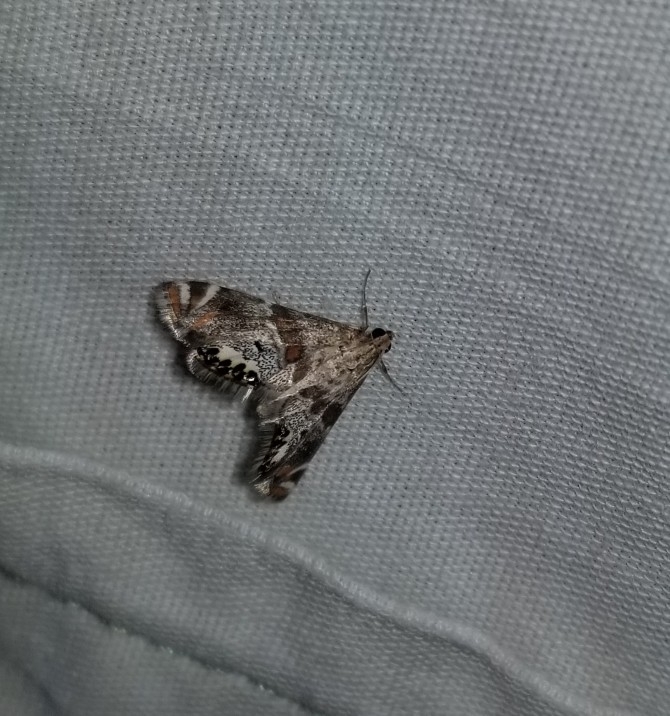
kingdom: Animalia
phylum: Arthropoda
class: Insecta
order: Lepidoptera
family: Crambidae
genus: Petrophila
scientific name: Petrophila jaliscalis
